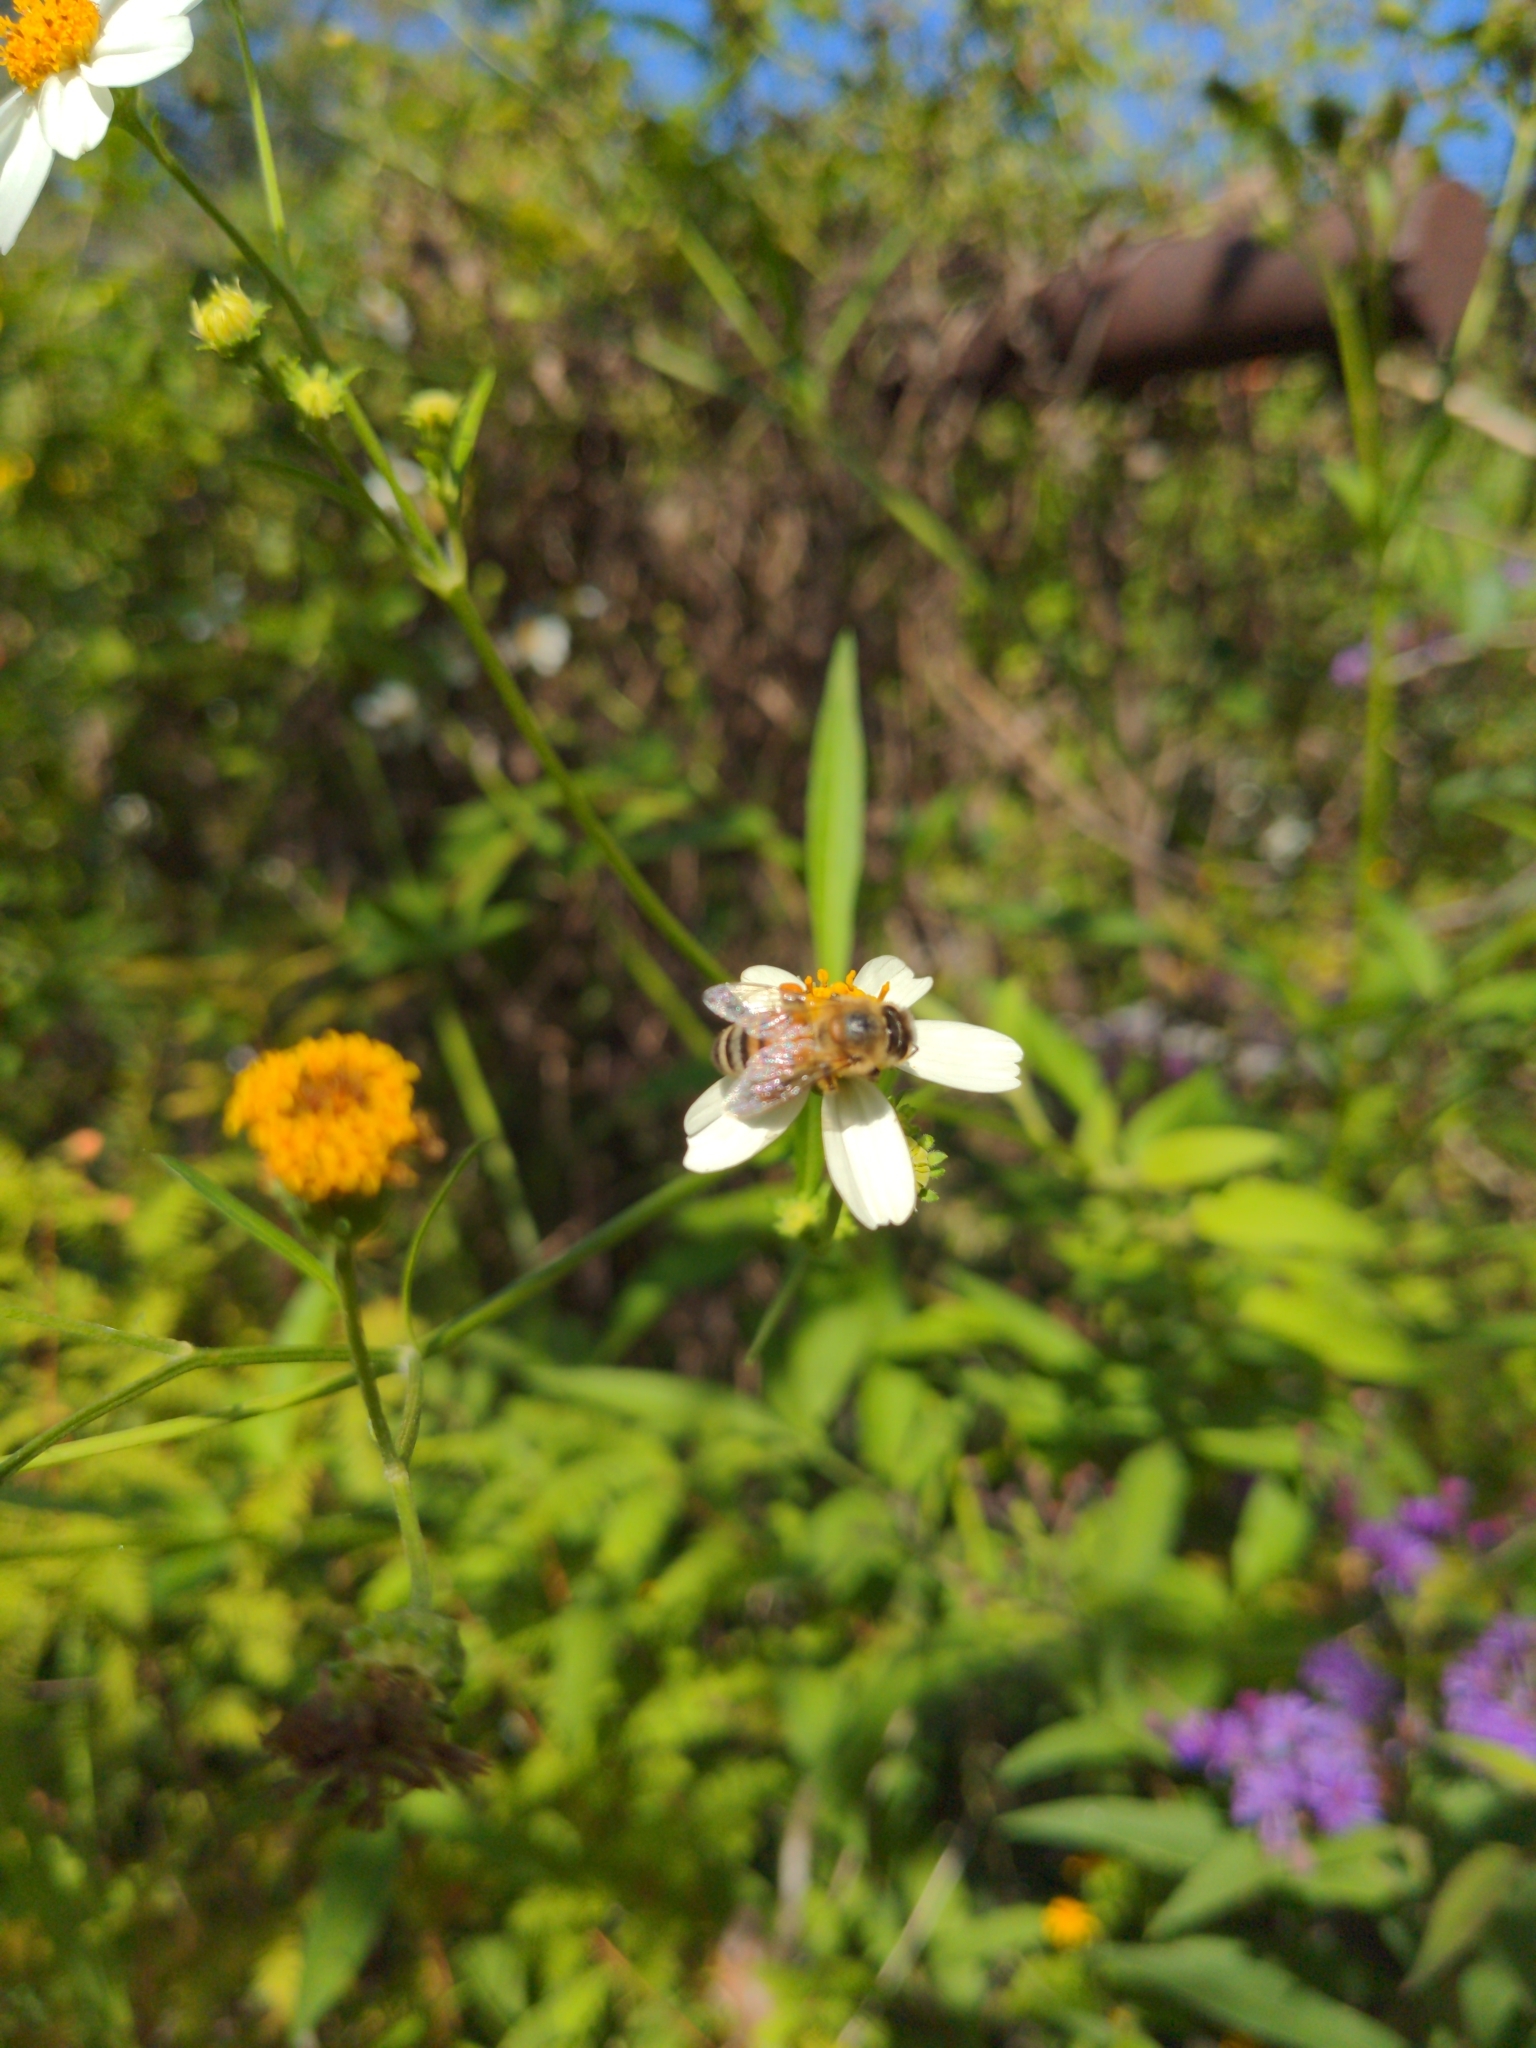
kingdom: Animalia
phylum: Arthropoda
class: Insecta
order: Hymenoptera
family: Apidae
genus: Apis
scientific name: Apis mellifera
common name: Honey bee
